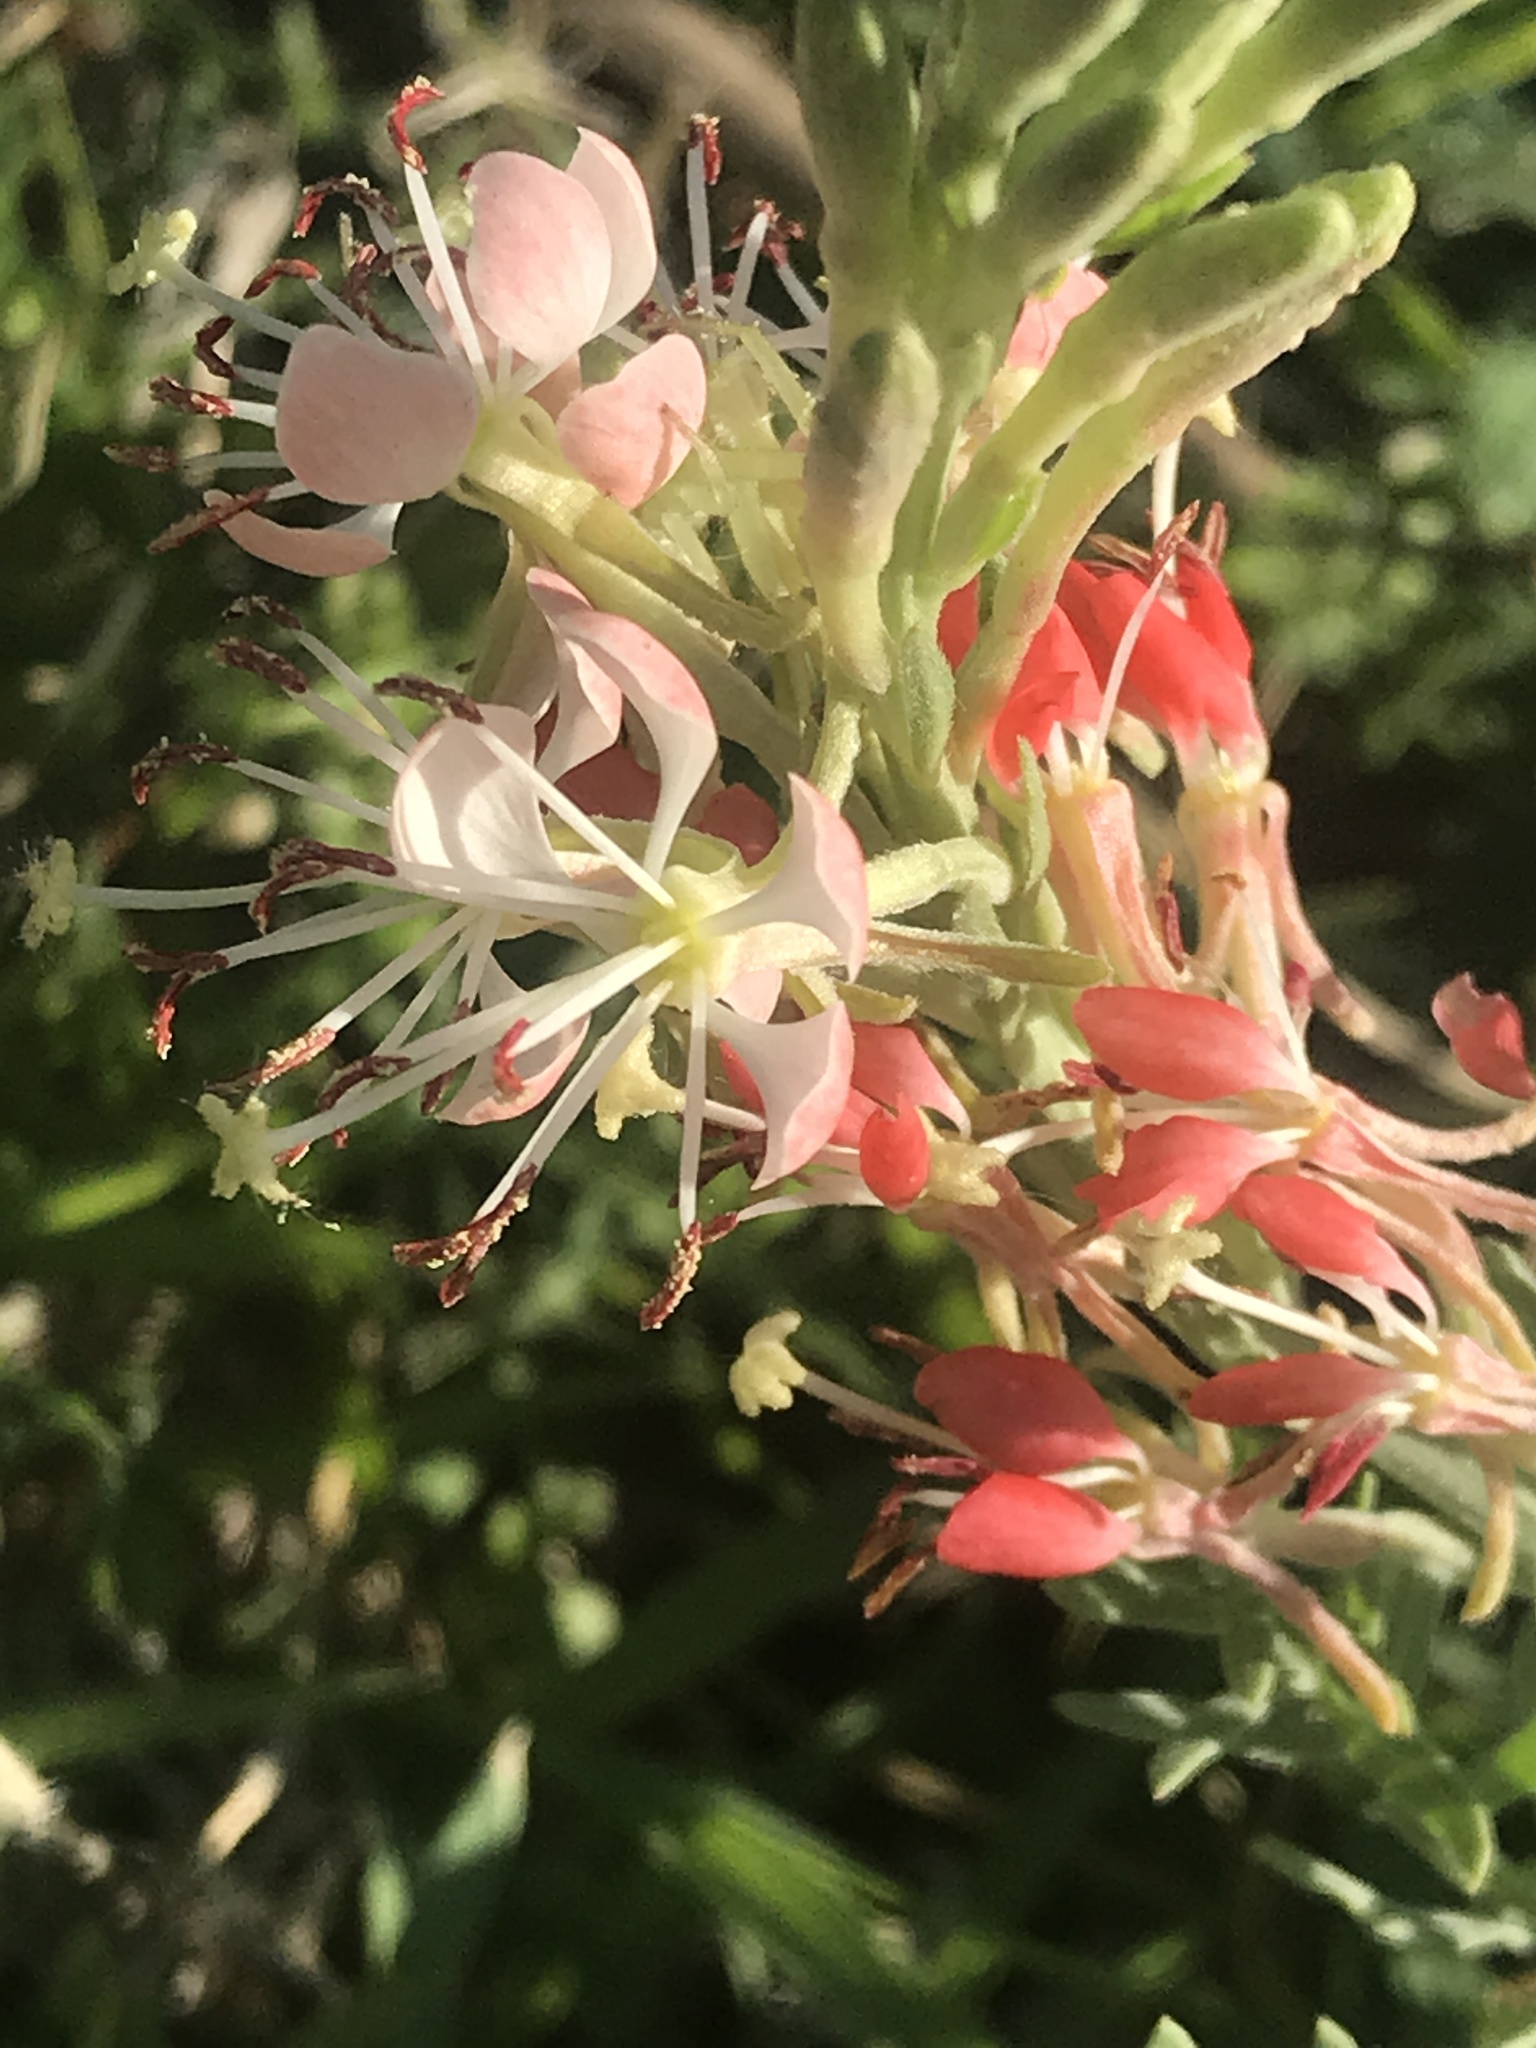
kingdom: Plantae
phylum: Tracheophyta
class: Magnoliopsida
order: Myrtales
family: Onagraceae
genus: Oenothera
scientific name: Oenothera suffrutescens
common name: Scarlet beeblossom
